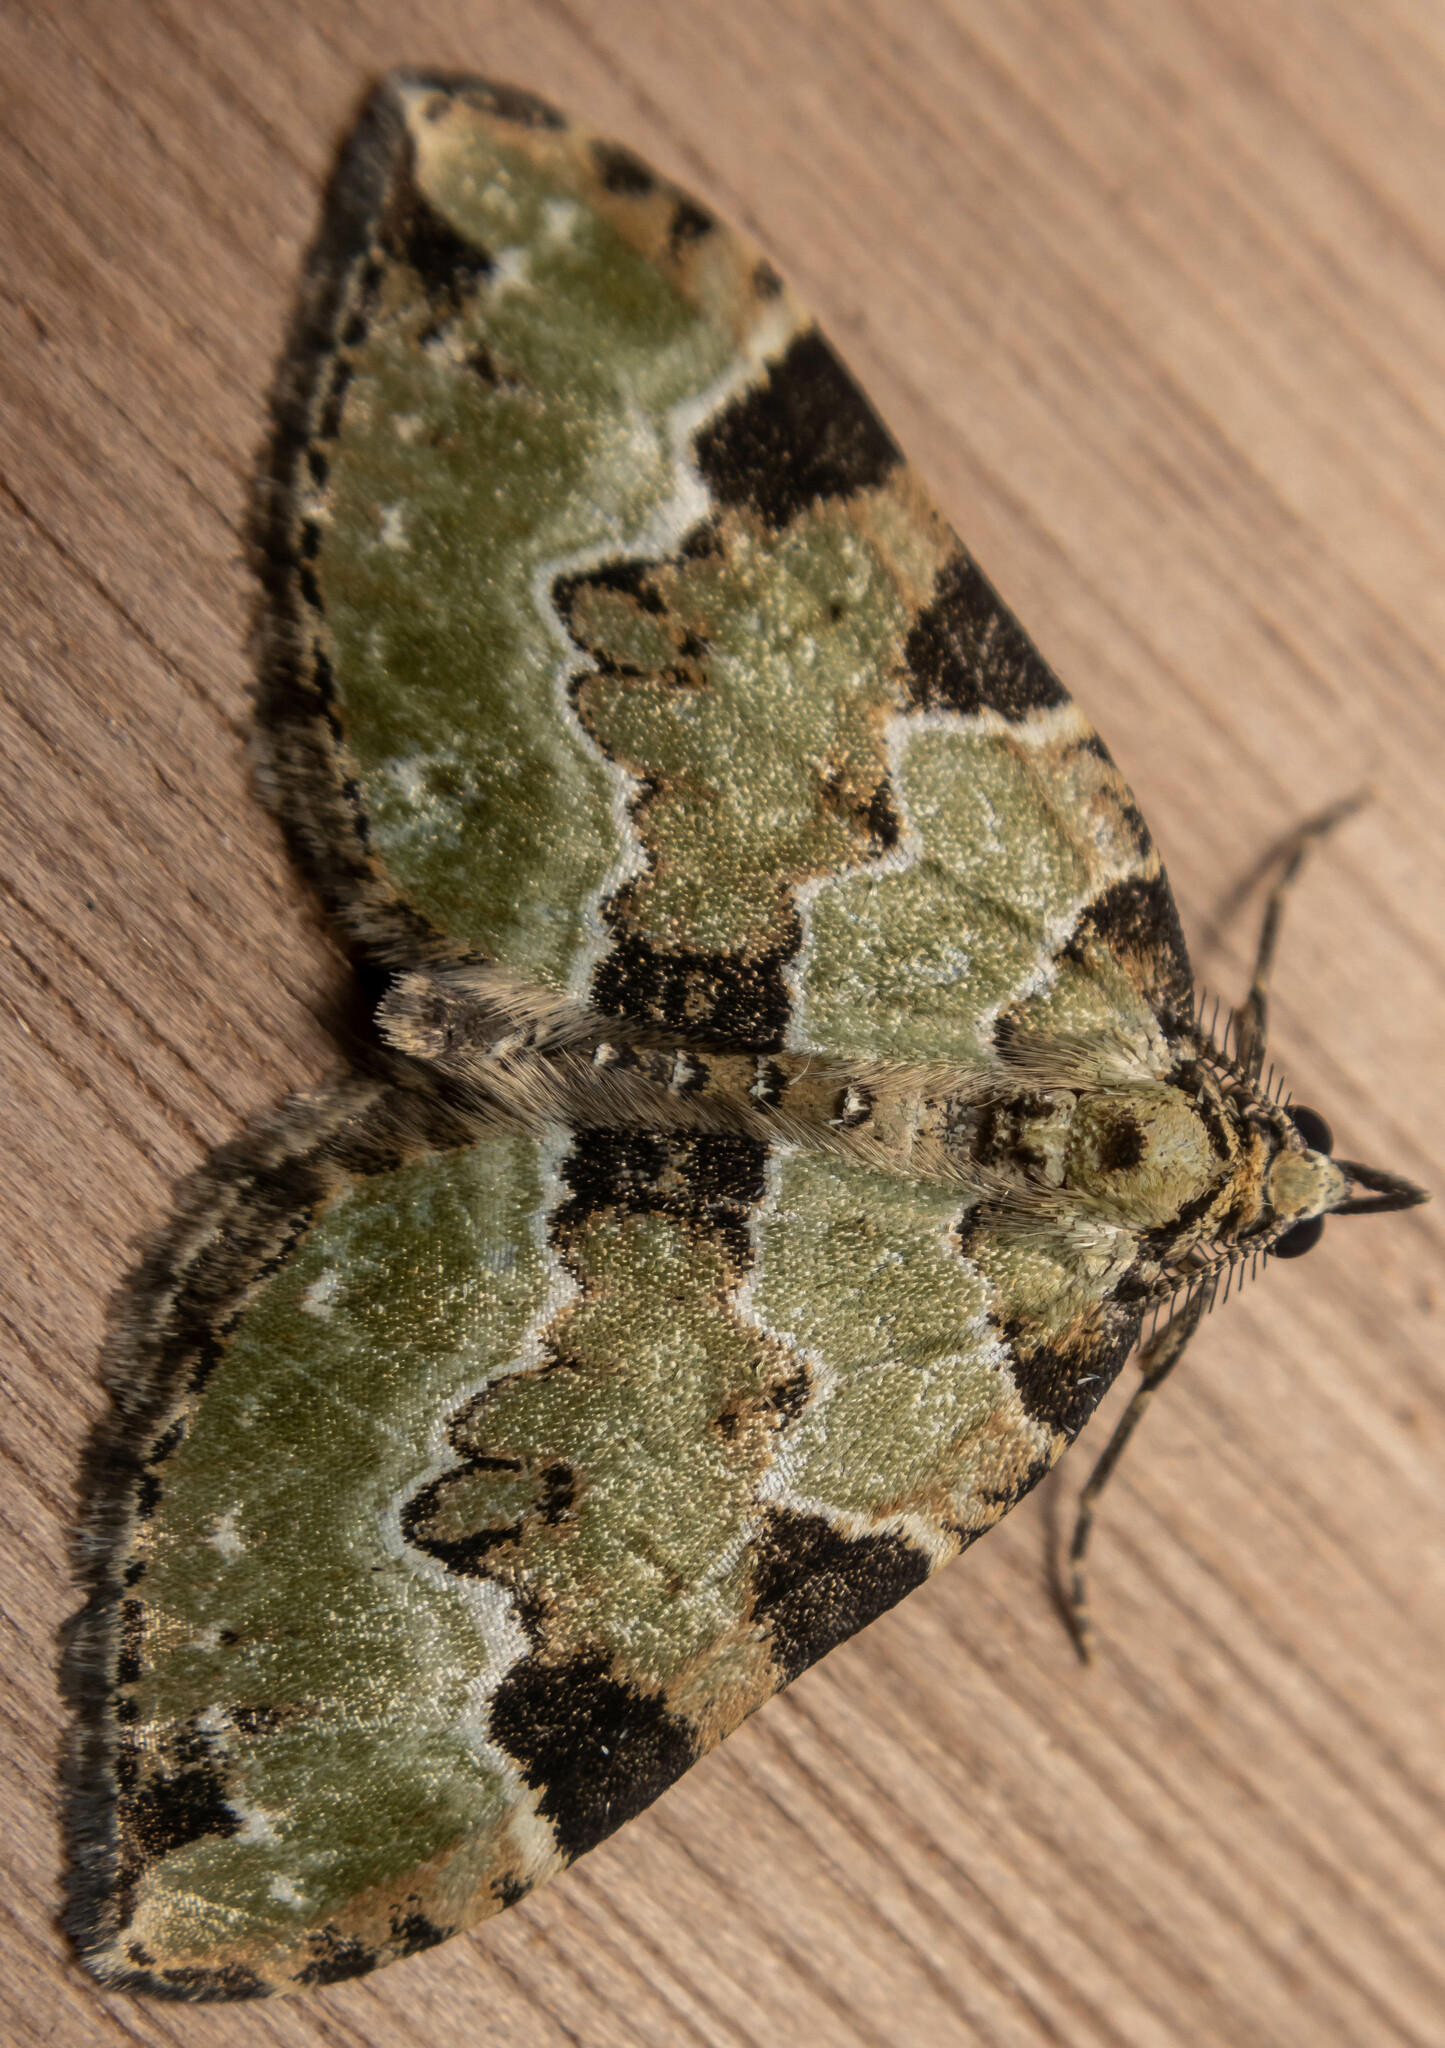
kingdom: Animalia
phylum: Arthropoda
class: Insecta
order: Lepidoptera
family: Geometridae
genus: Colostygia
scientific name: Colostygia pectinataria
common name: Green carpet
